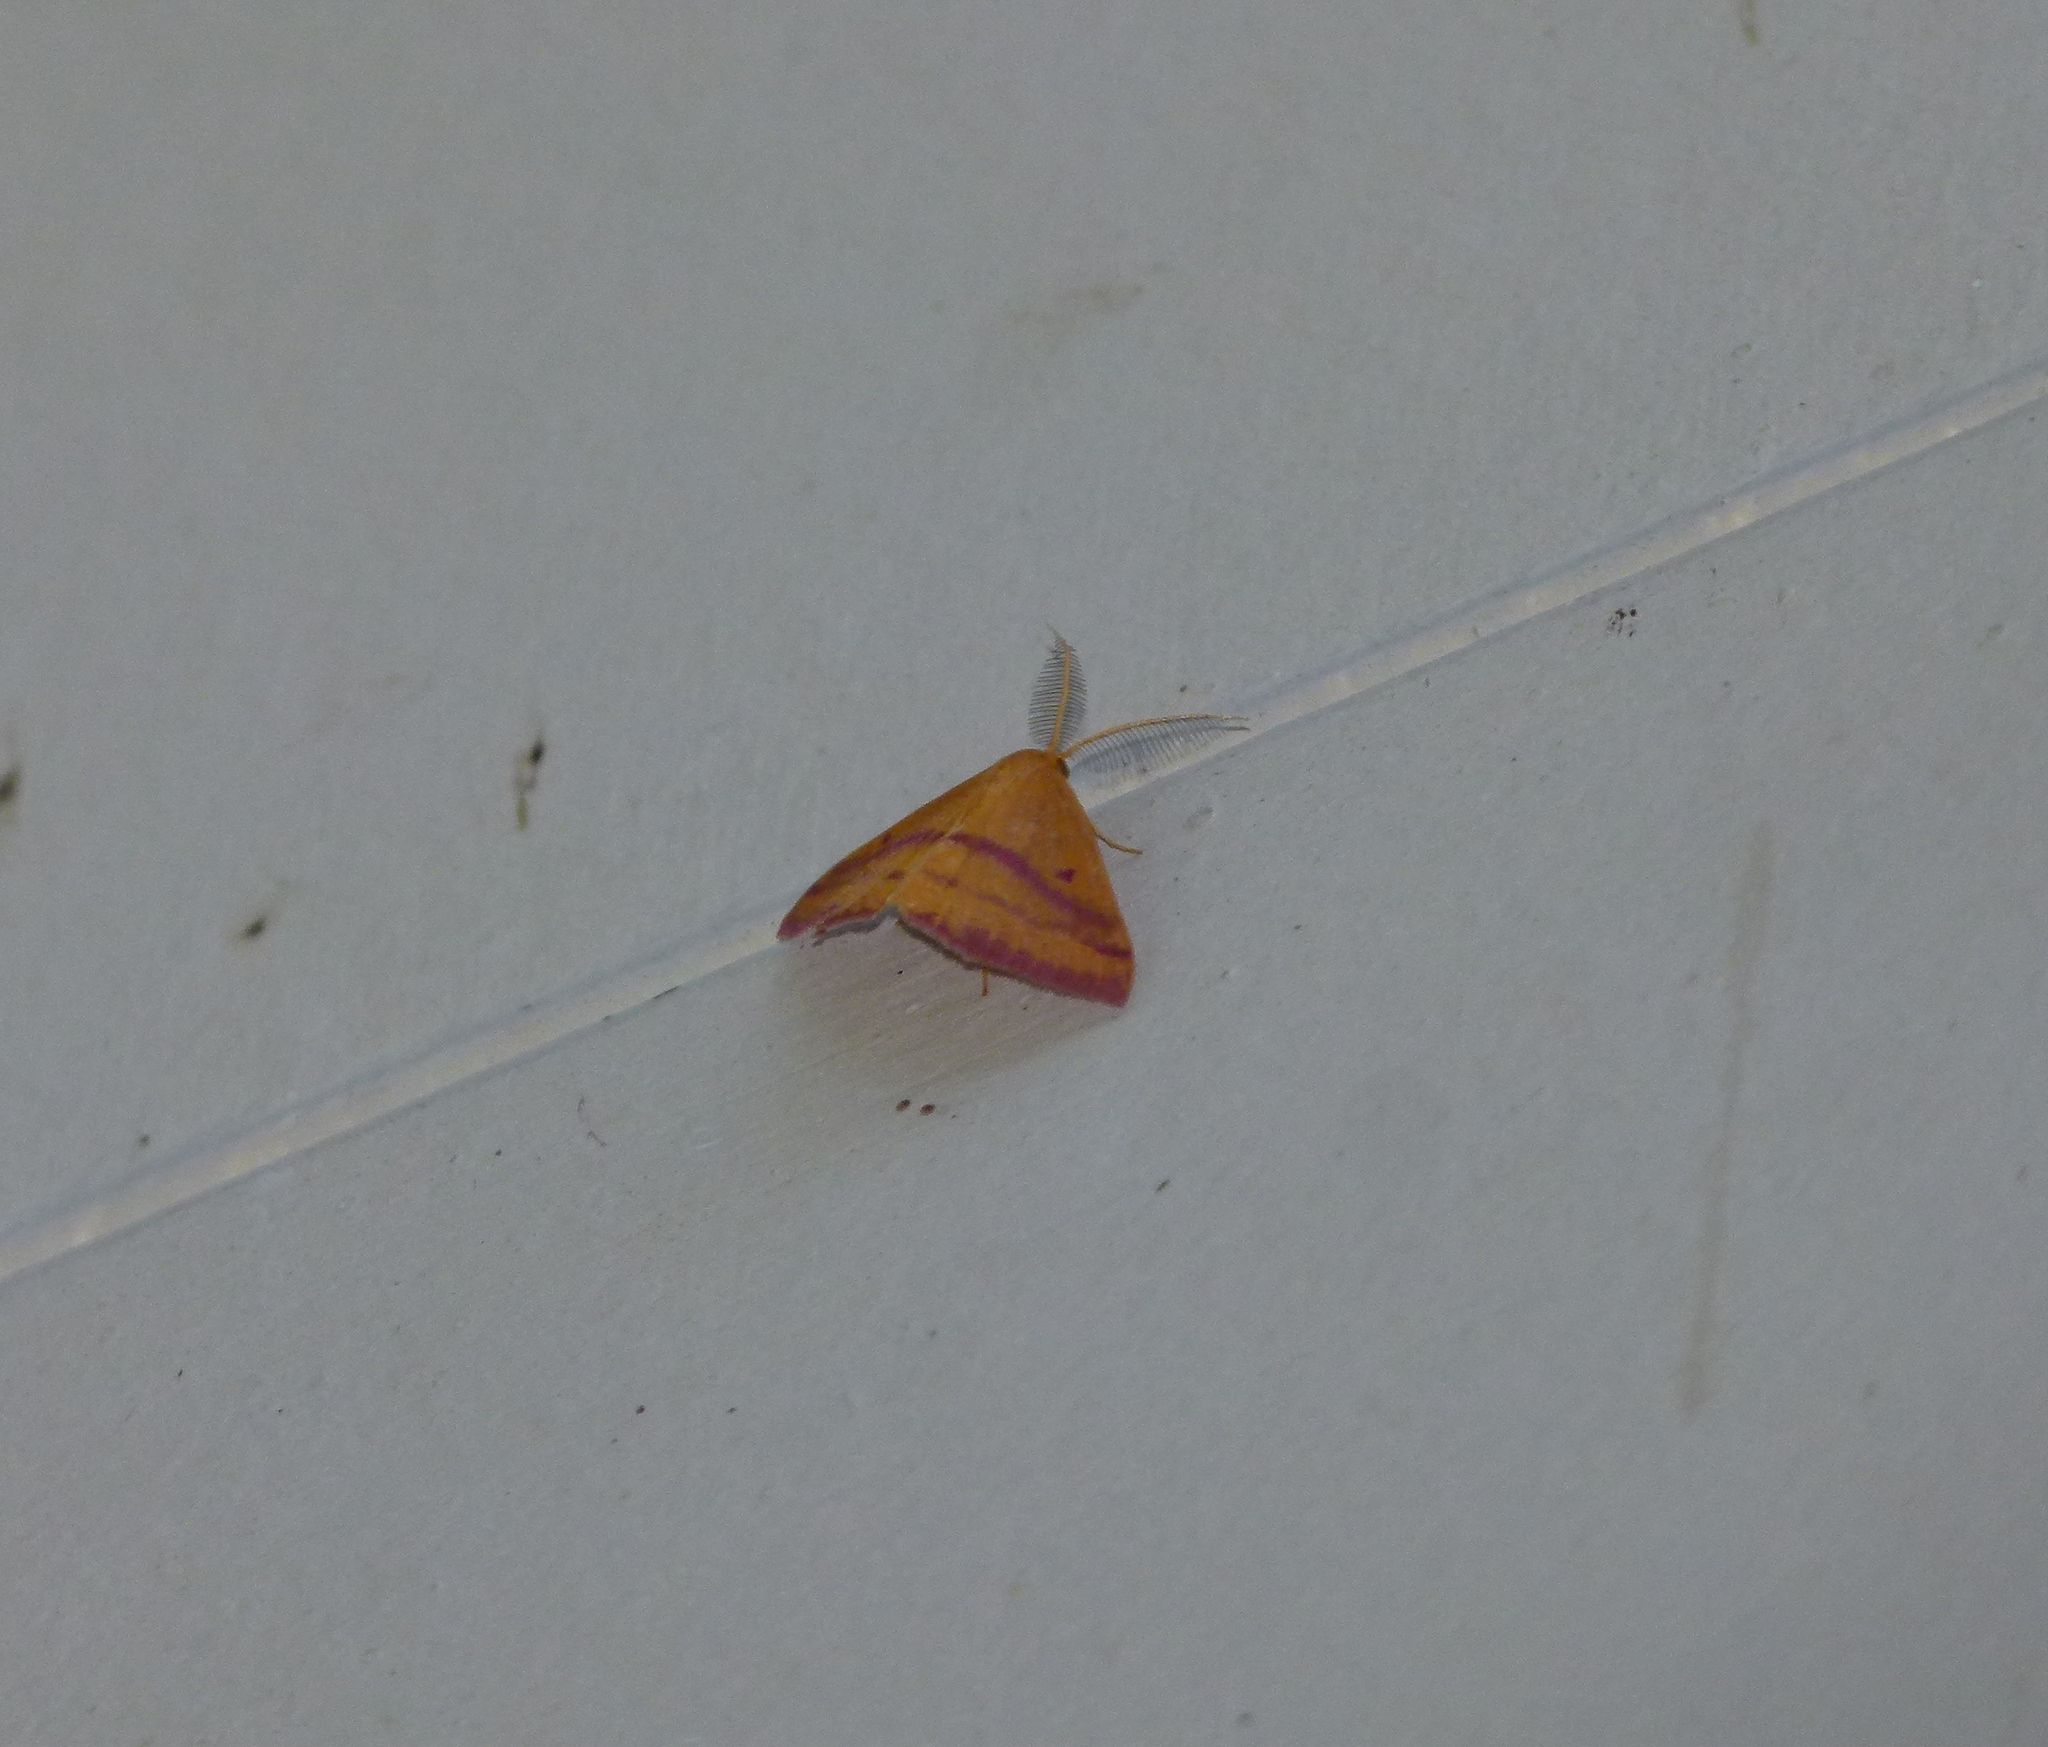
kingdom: Animalia
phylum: Arthropoda
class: Insecta
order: Lepidoptera
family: Geometridae
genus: Haematopis
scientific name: Haematopis grataria
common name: Chickweed geometer
